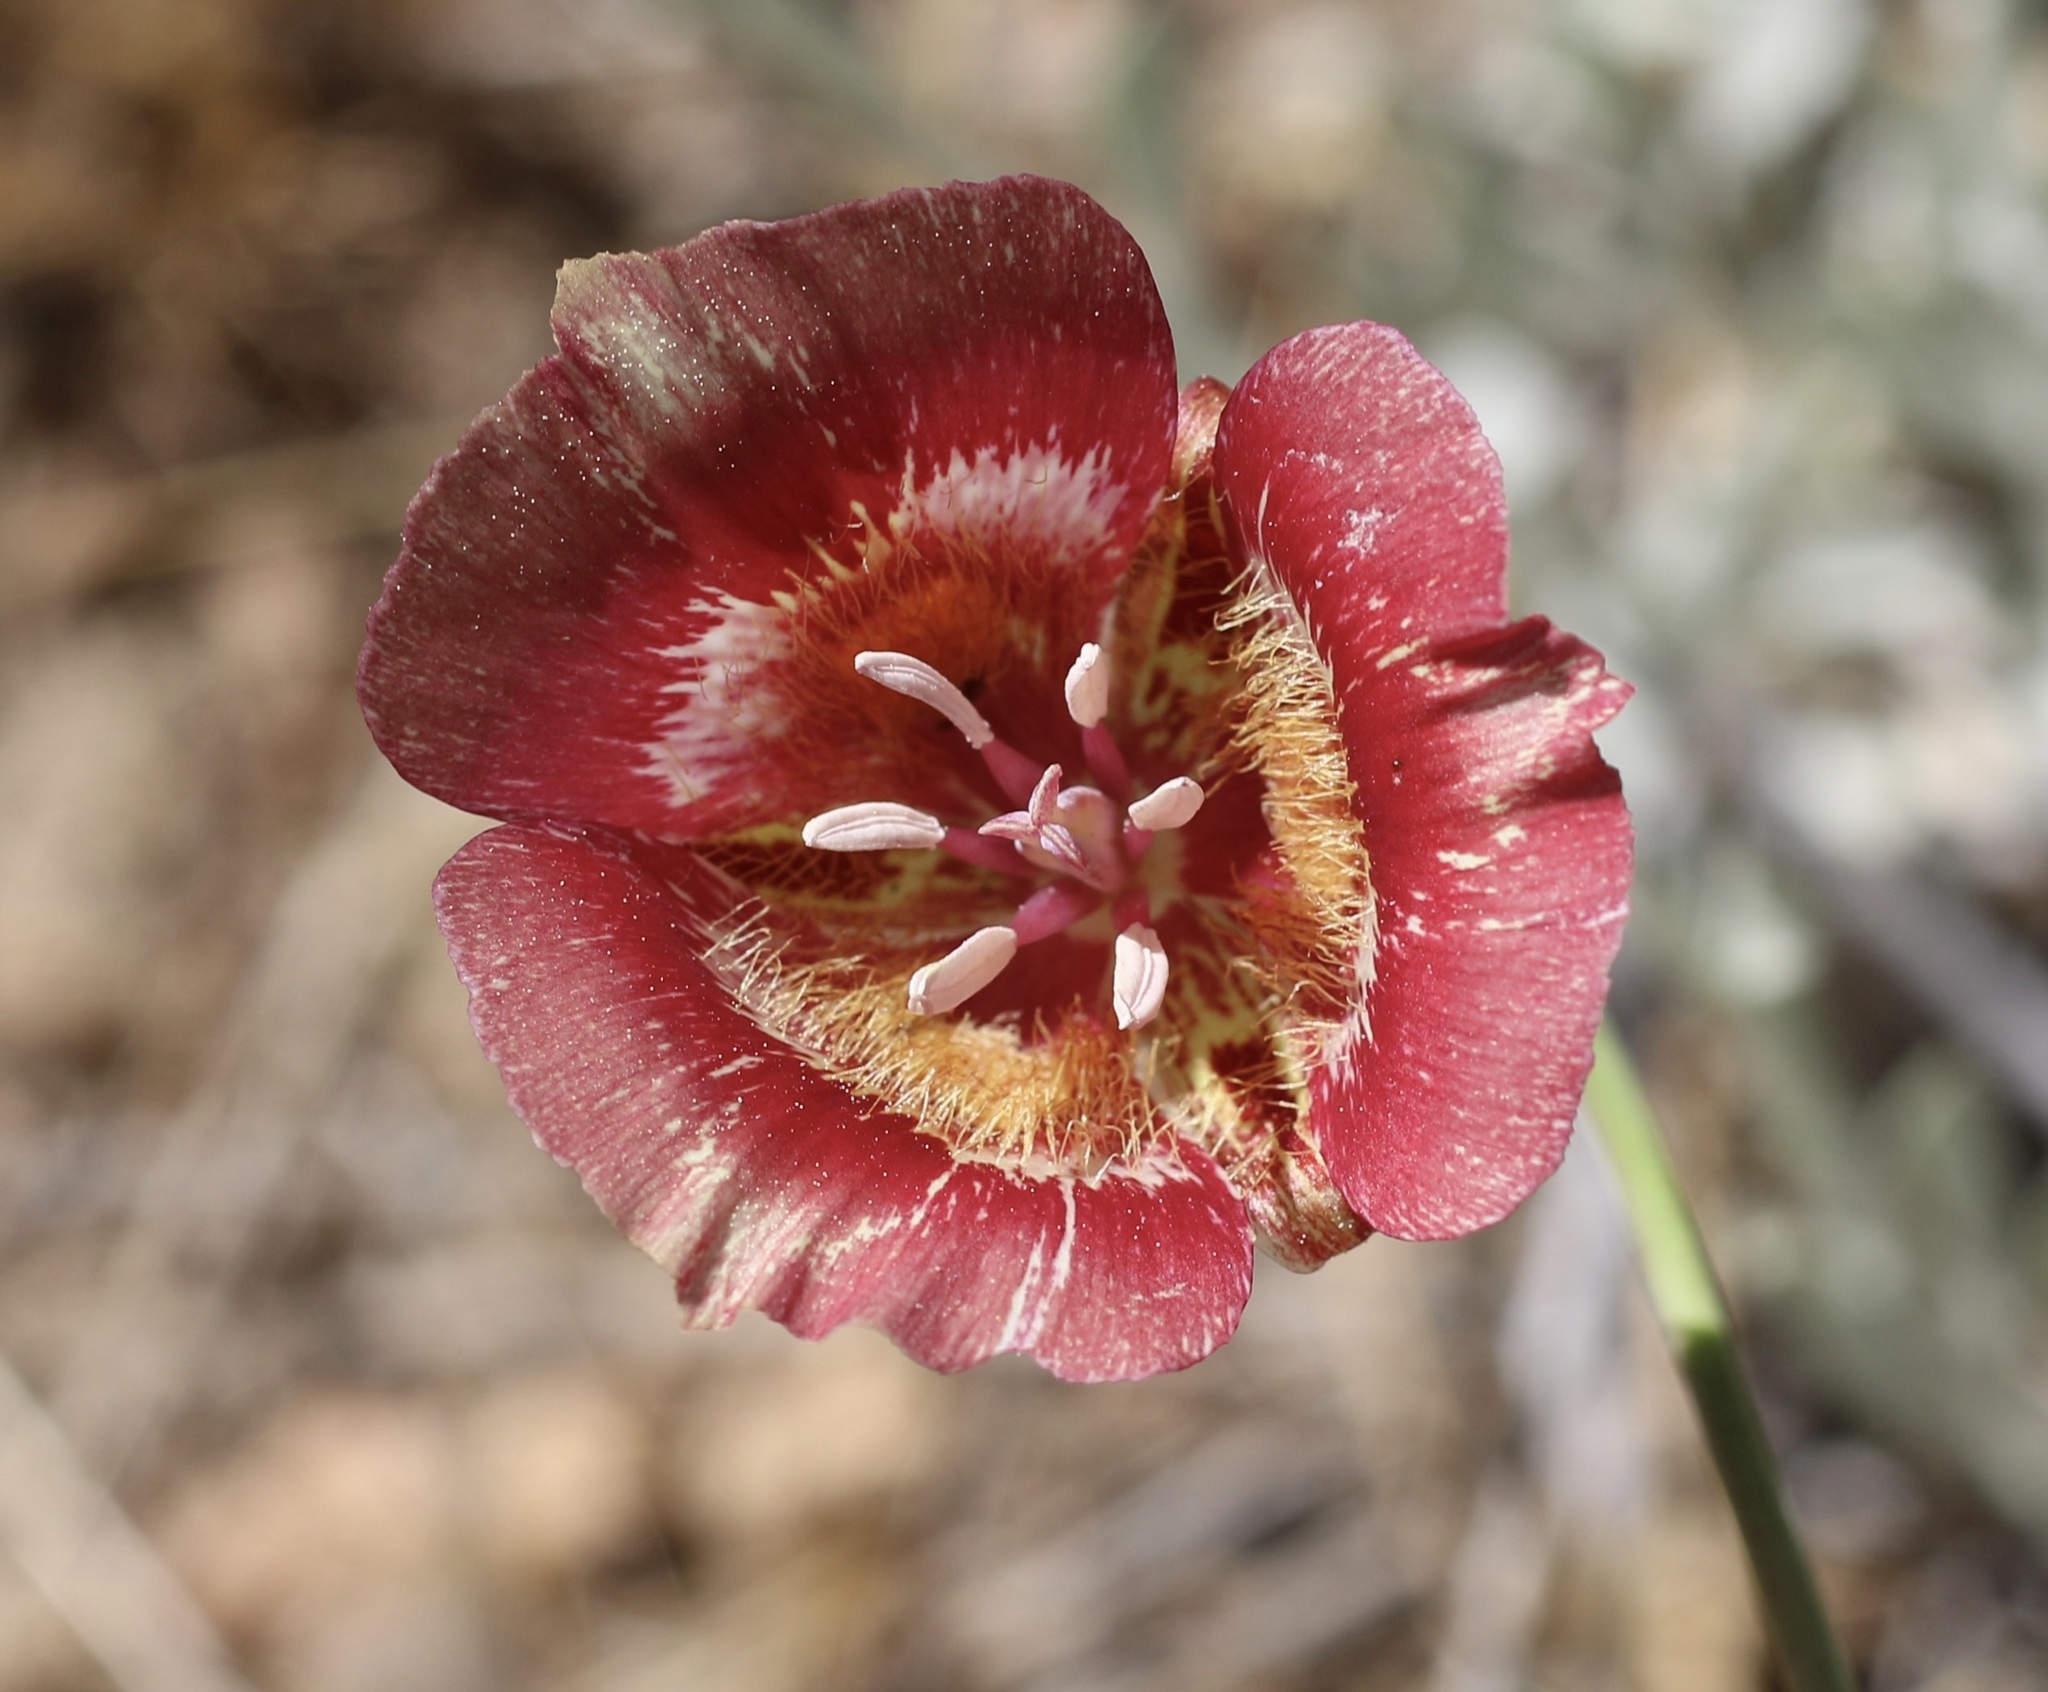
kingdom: Plantae
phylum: Tracheophyta
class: Liliopsida
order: Liliales
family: Liliaceae
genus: Calochortus
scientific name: Calochortus venustus
